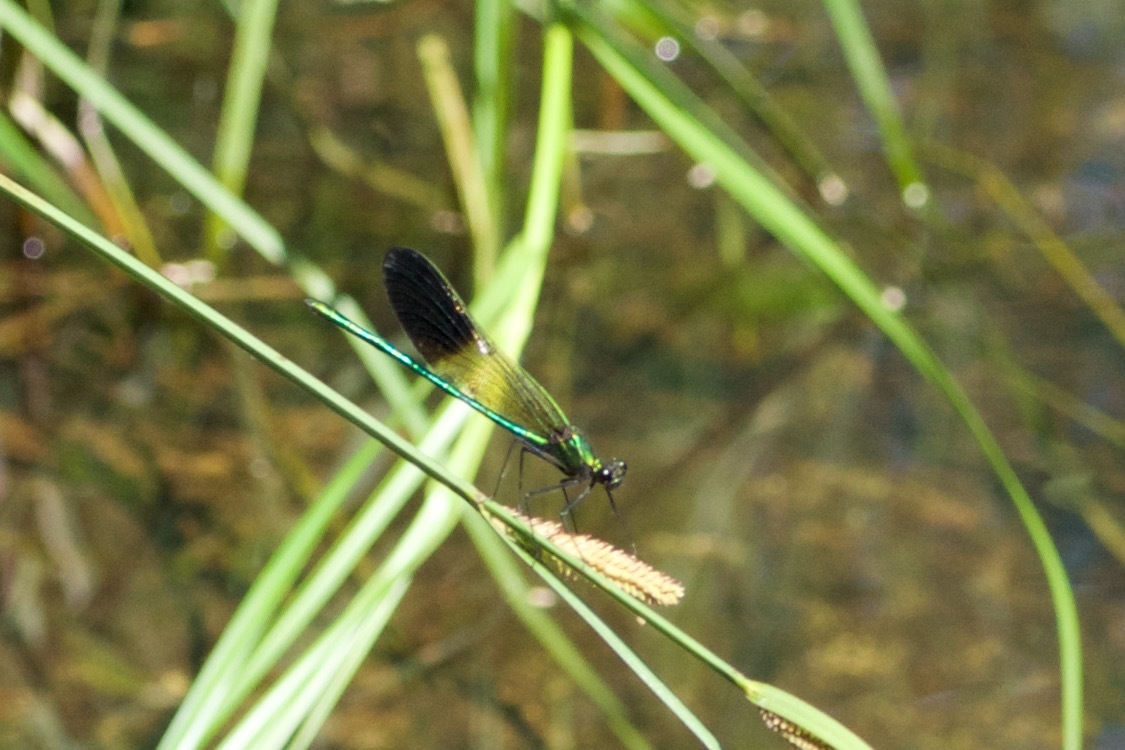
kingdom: Animalia
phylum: Arthropoda
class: Insecta
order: Odonata
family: Calopterygidae
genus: Calopteryx
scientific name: Calopteryx aequabilis
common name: River jewelwing
